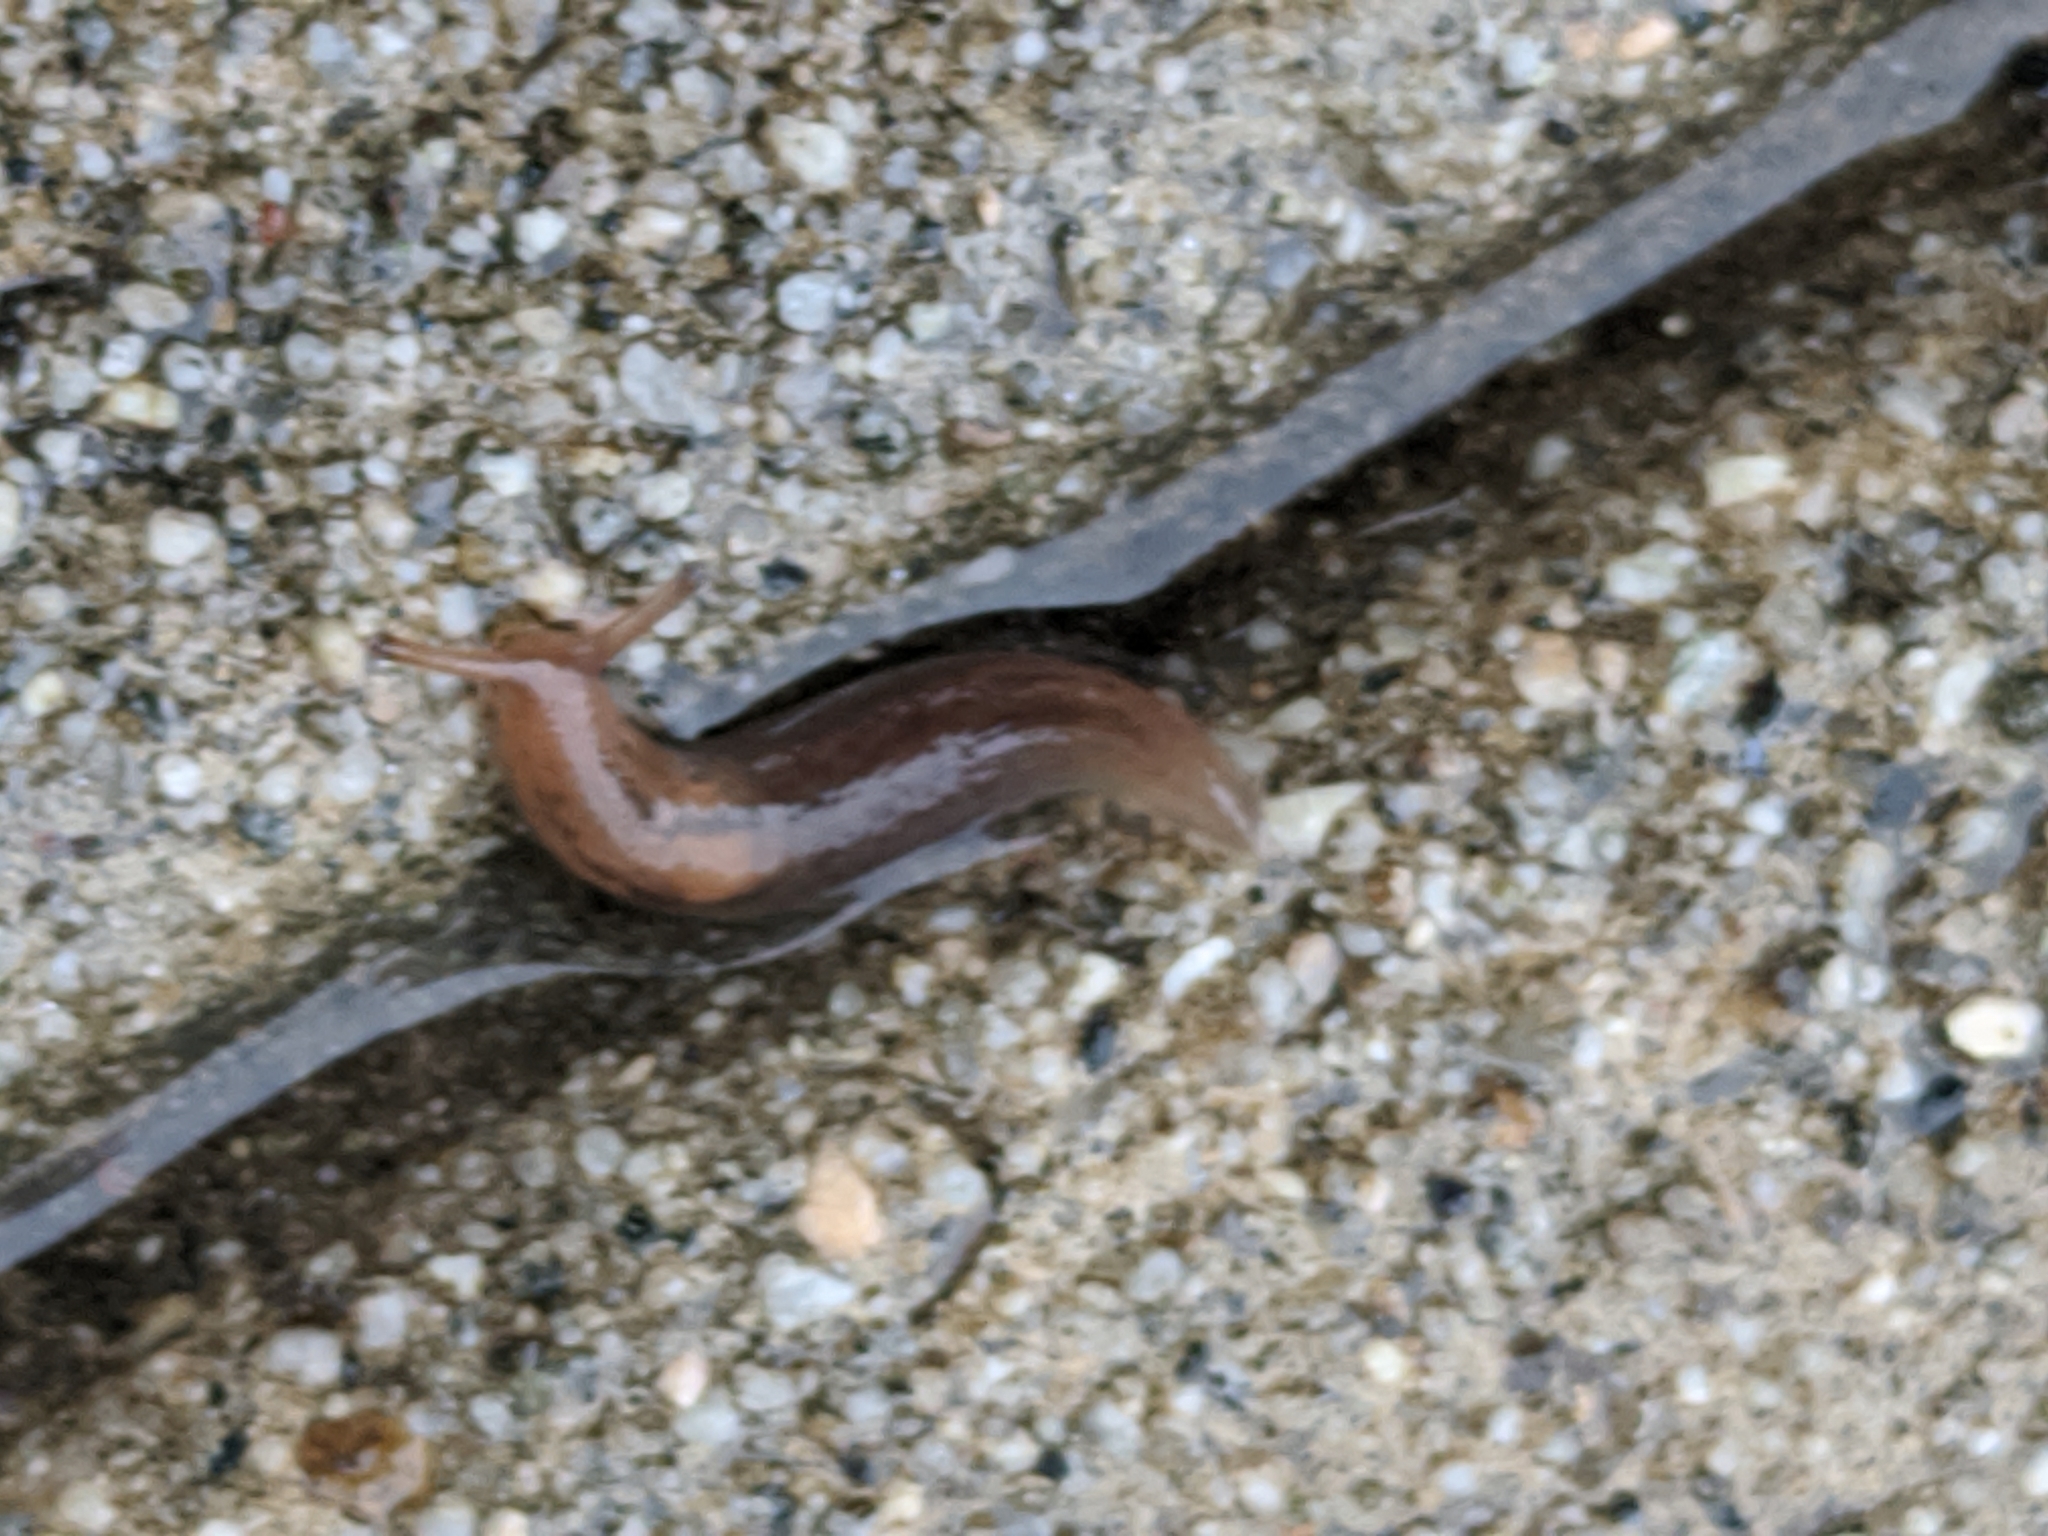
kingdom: Animalia
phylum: Mollusca
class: Gastropoda
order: Stylommatophora
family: Limacidae
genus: Ambigolimax
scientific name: Ambigolimax
